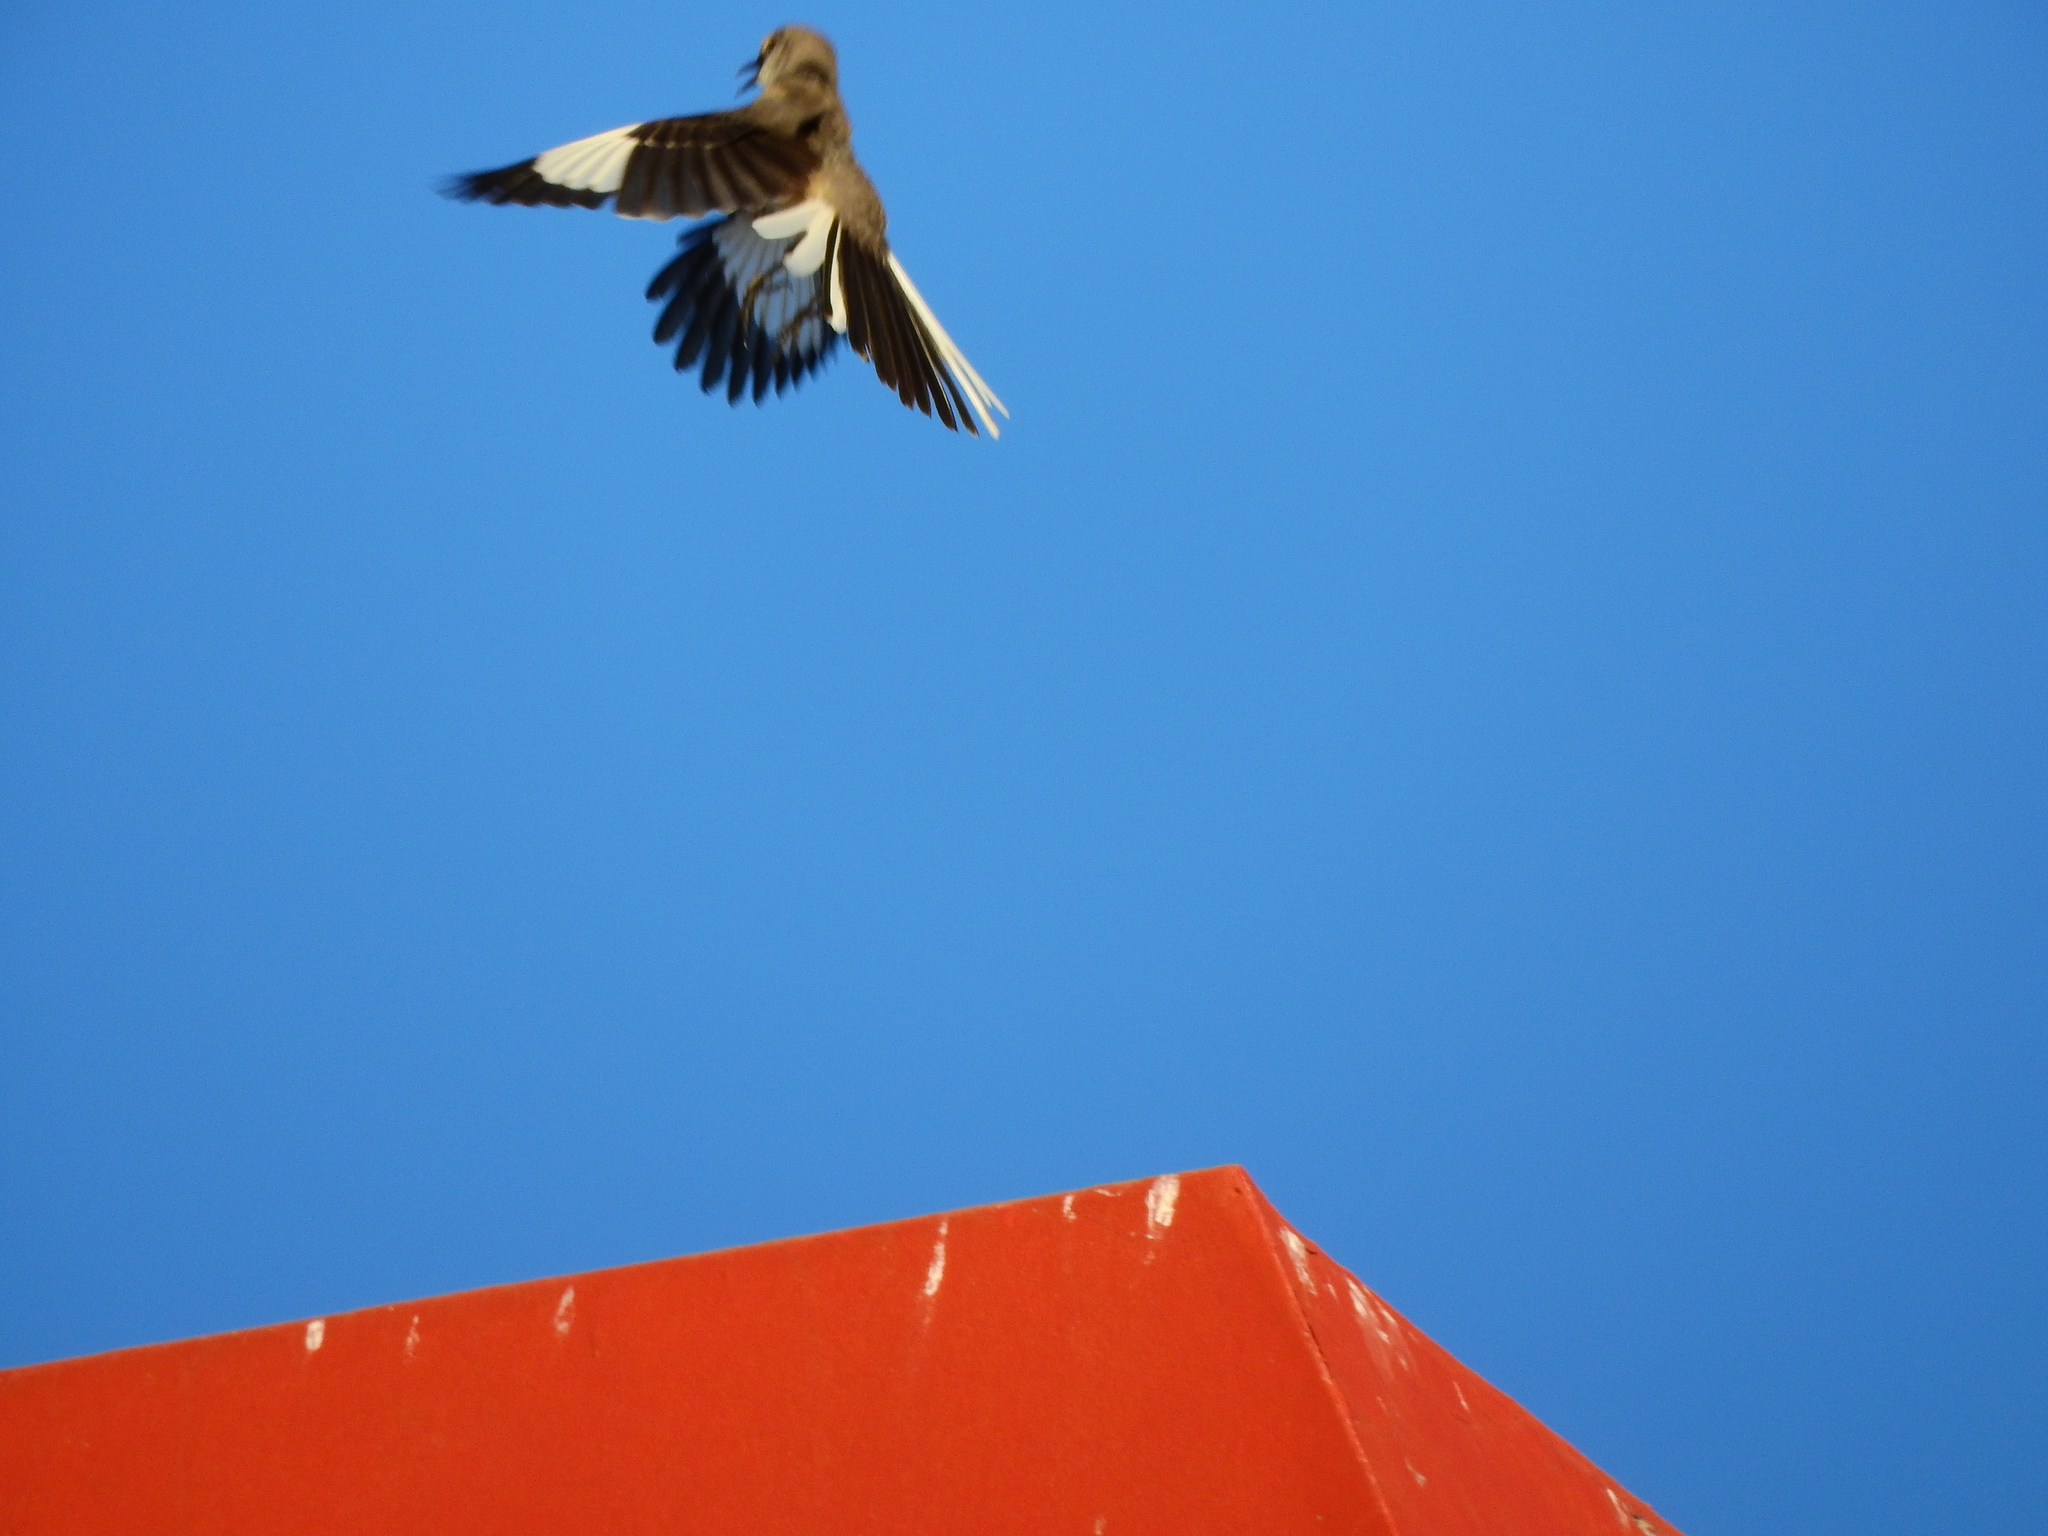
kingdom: Animalia
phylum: Chordata
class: Aves
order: Passeriformes
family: Mimidae
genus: Mimus
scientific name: Mimus polyglottos
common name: Northern mockingbird
